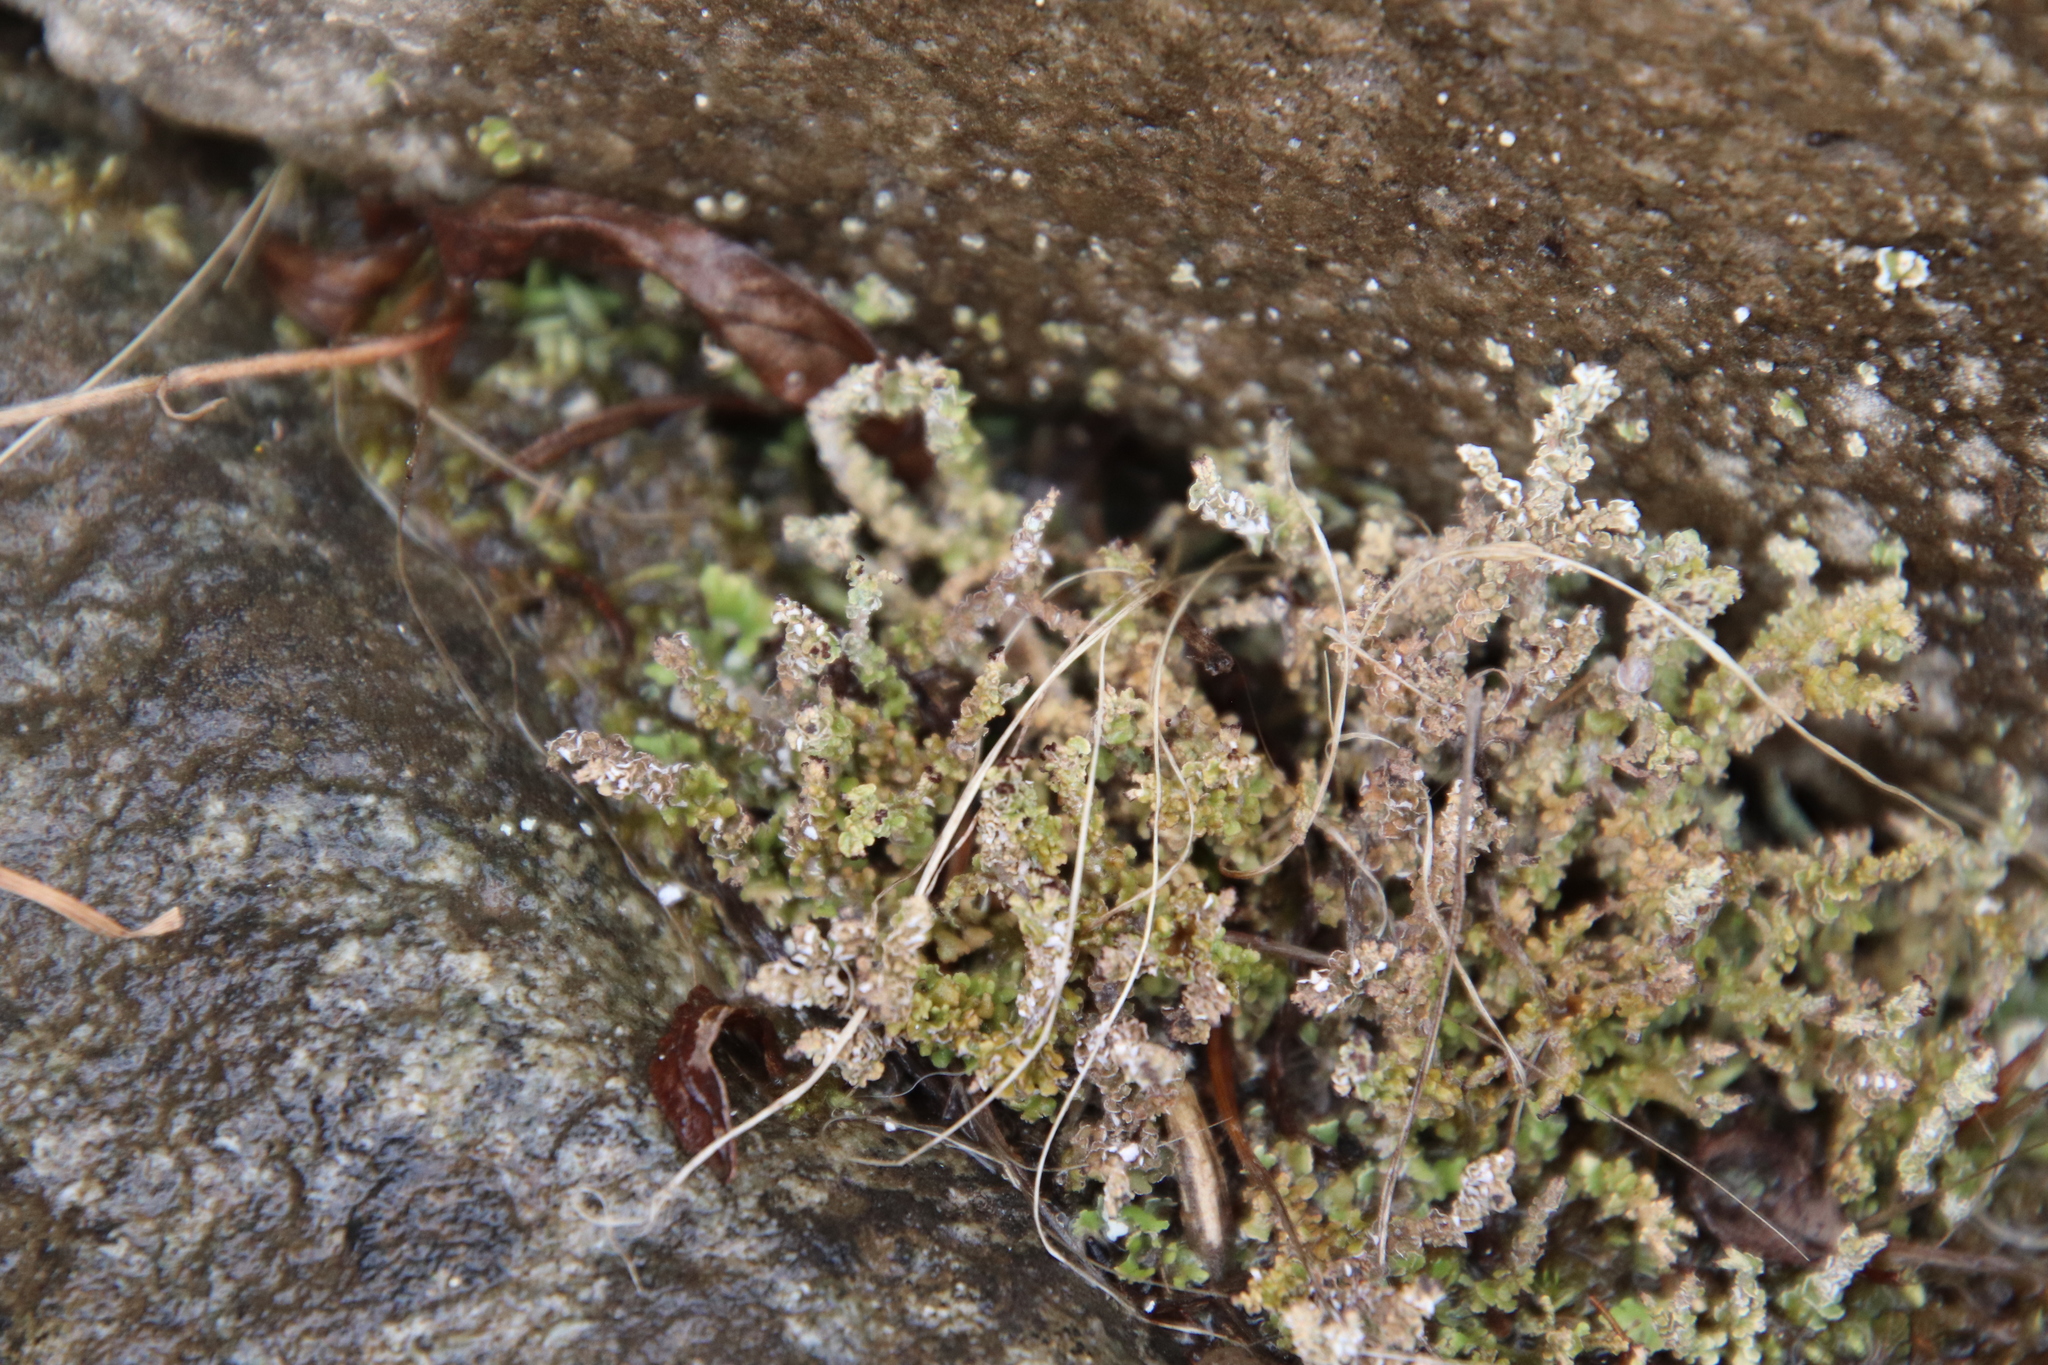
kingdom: Fungi
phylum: Ascomycota
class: Lecanoromycetes
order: Lecanorales
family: Cladoniaceae
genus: Cladonia
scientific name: Cladonia scabriuscula
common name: Mealy forked clad lichen
